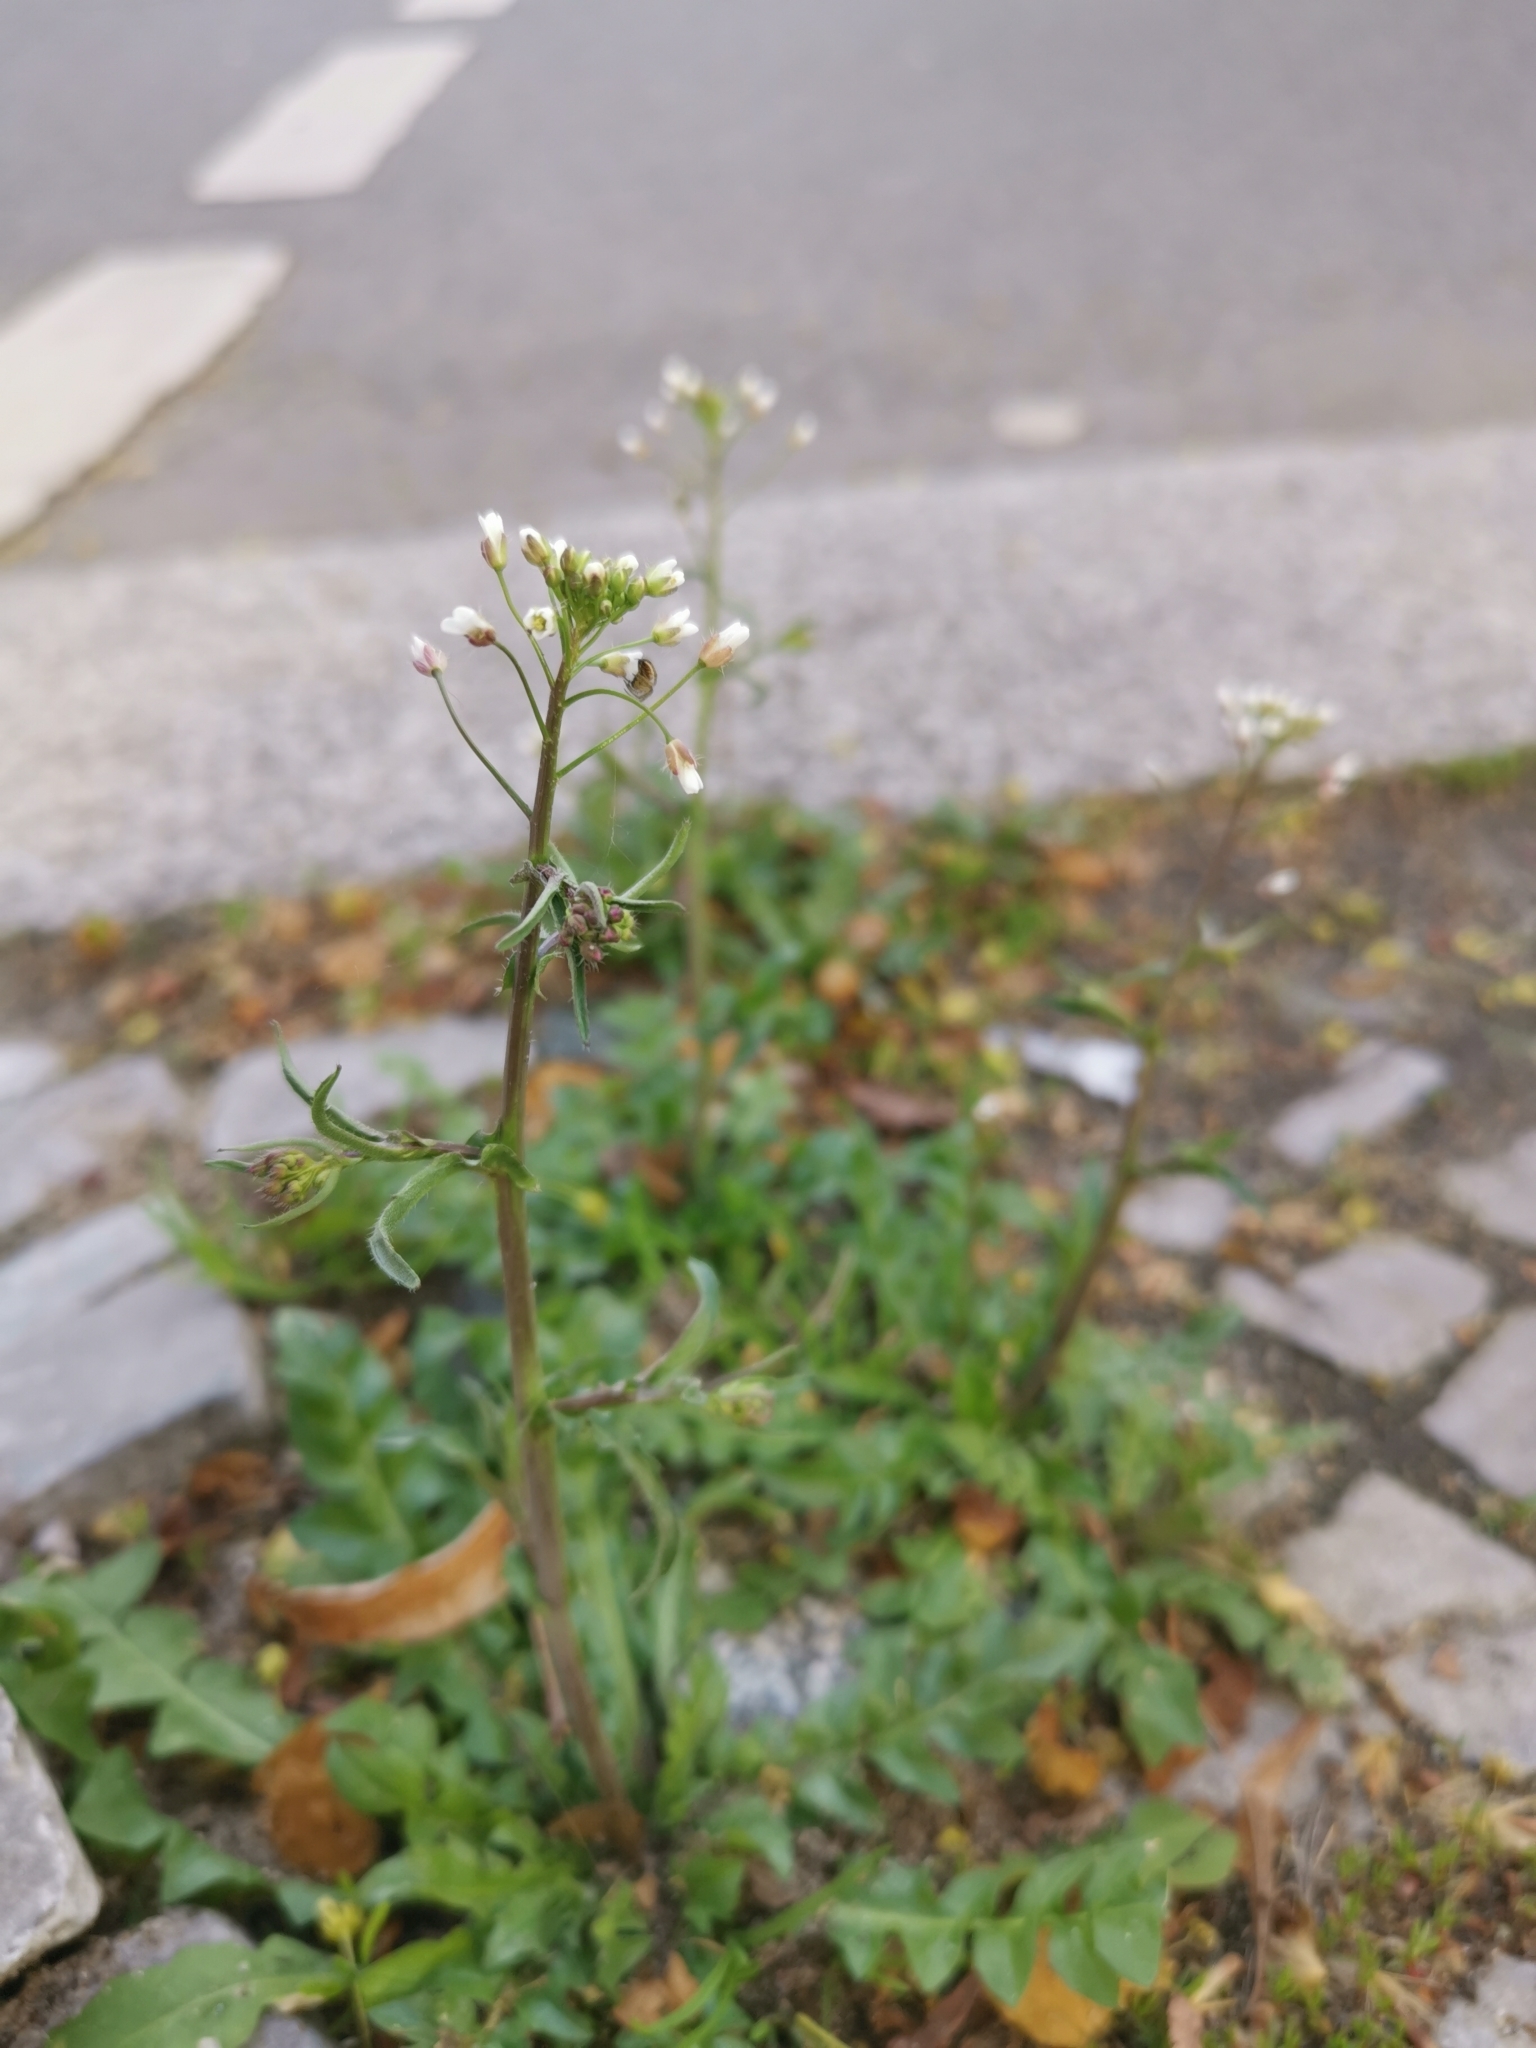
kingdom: Plantae
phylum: Tracheophyta
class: Magnoliopsida
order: Brassicales
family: Brassicaceae
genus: Capsella
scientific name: Capsella bursa-pastoris
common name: Shepherd's purse
